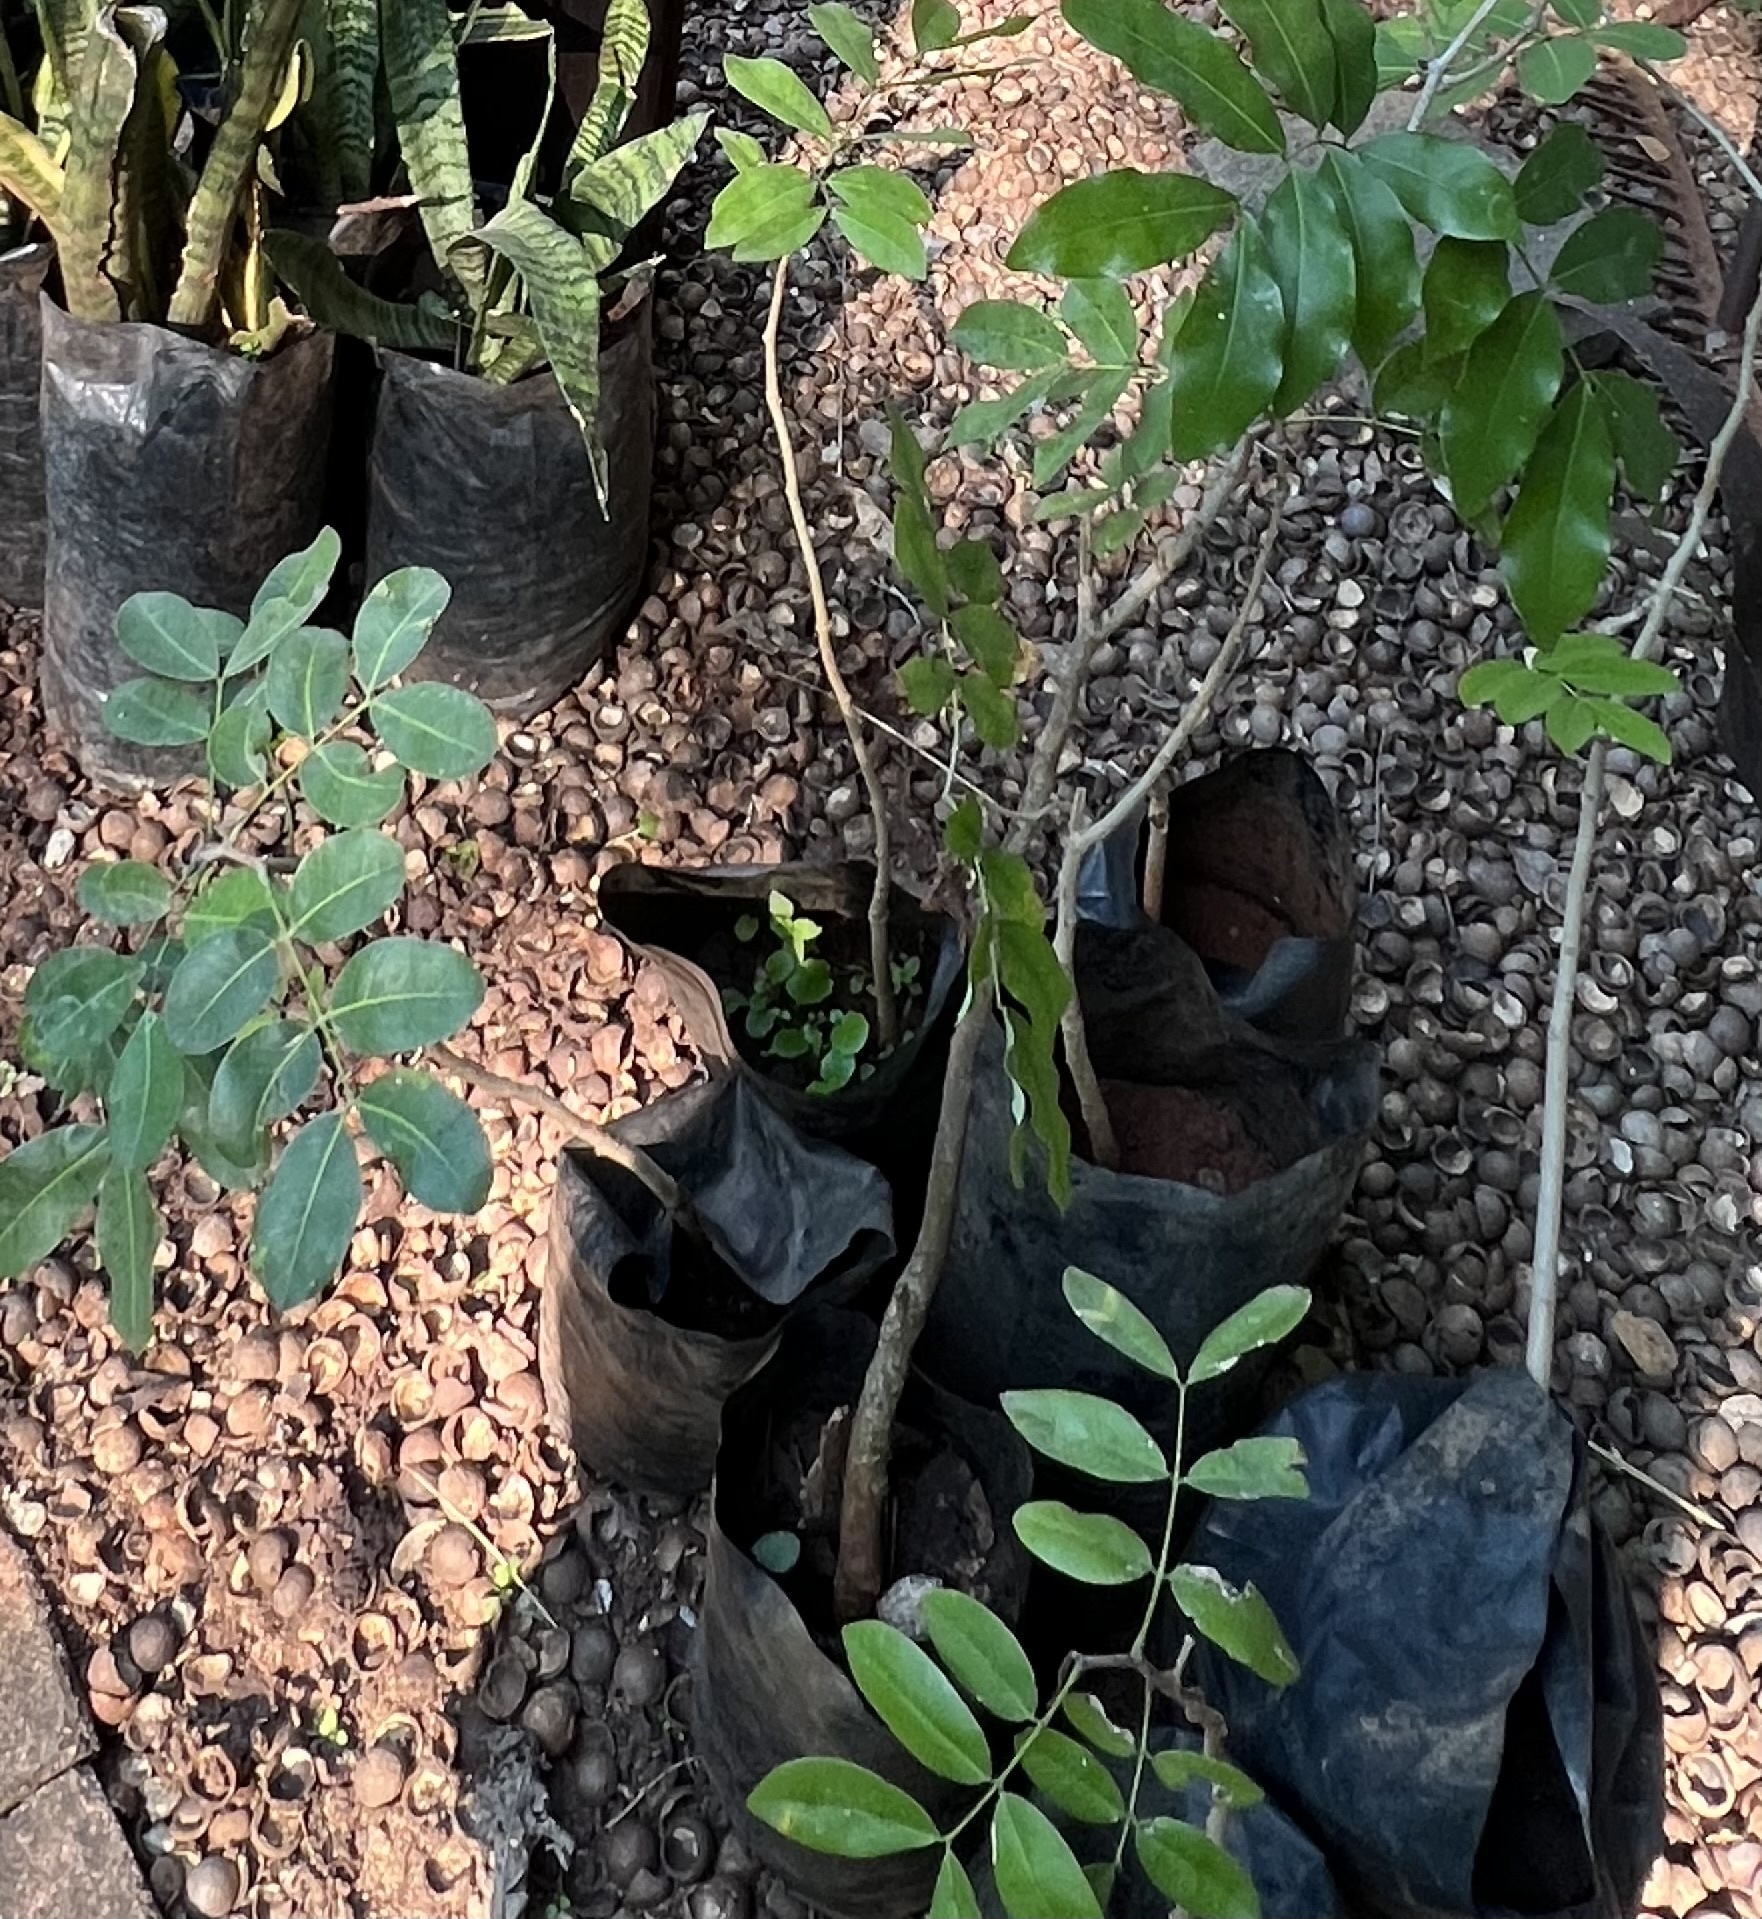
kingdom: Plantae
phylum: Tracheophyta
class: Magnoliopsida
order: Fabales
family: Fabaceae
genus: Afzelia
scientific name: Afzelia quanzensis
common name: Pod mahogany
